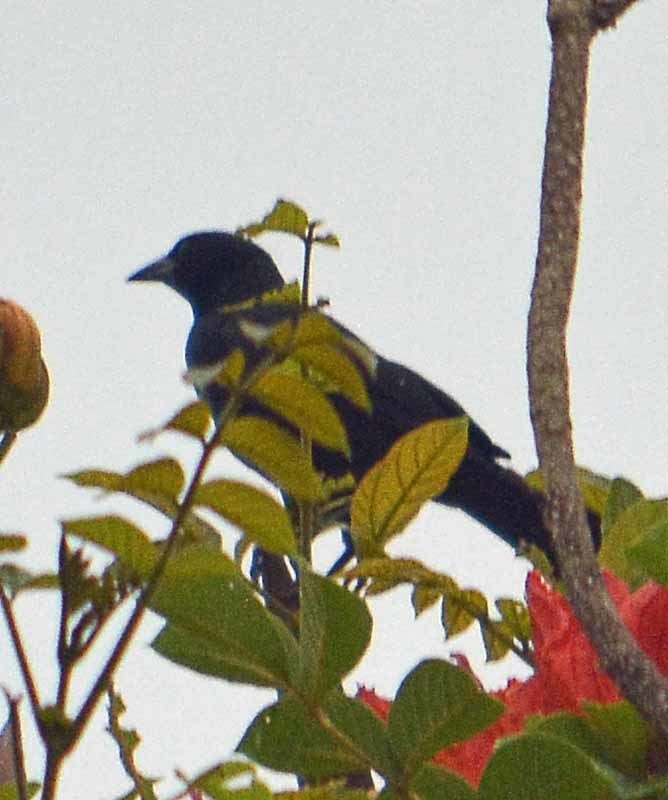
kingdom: Animalia
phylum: Chordata
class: Aves
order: Passeriformes
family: Icteridae
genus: Dives
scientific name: Dives dives
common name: Melodious blackbird
